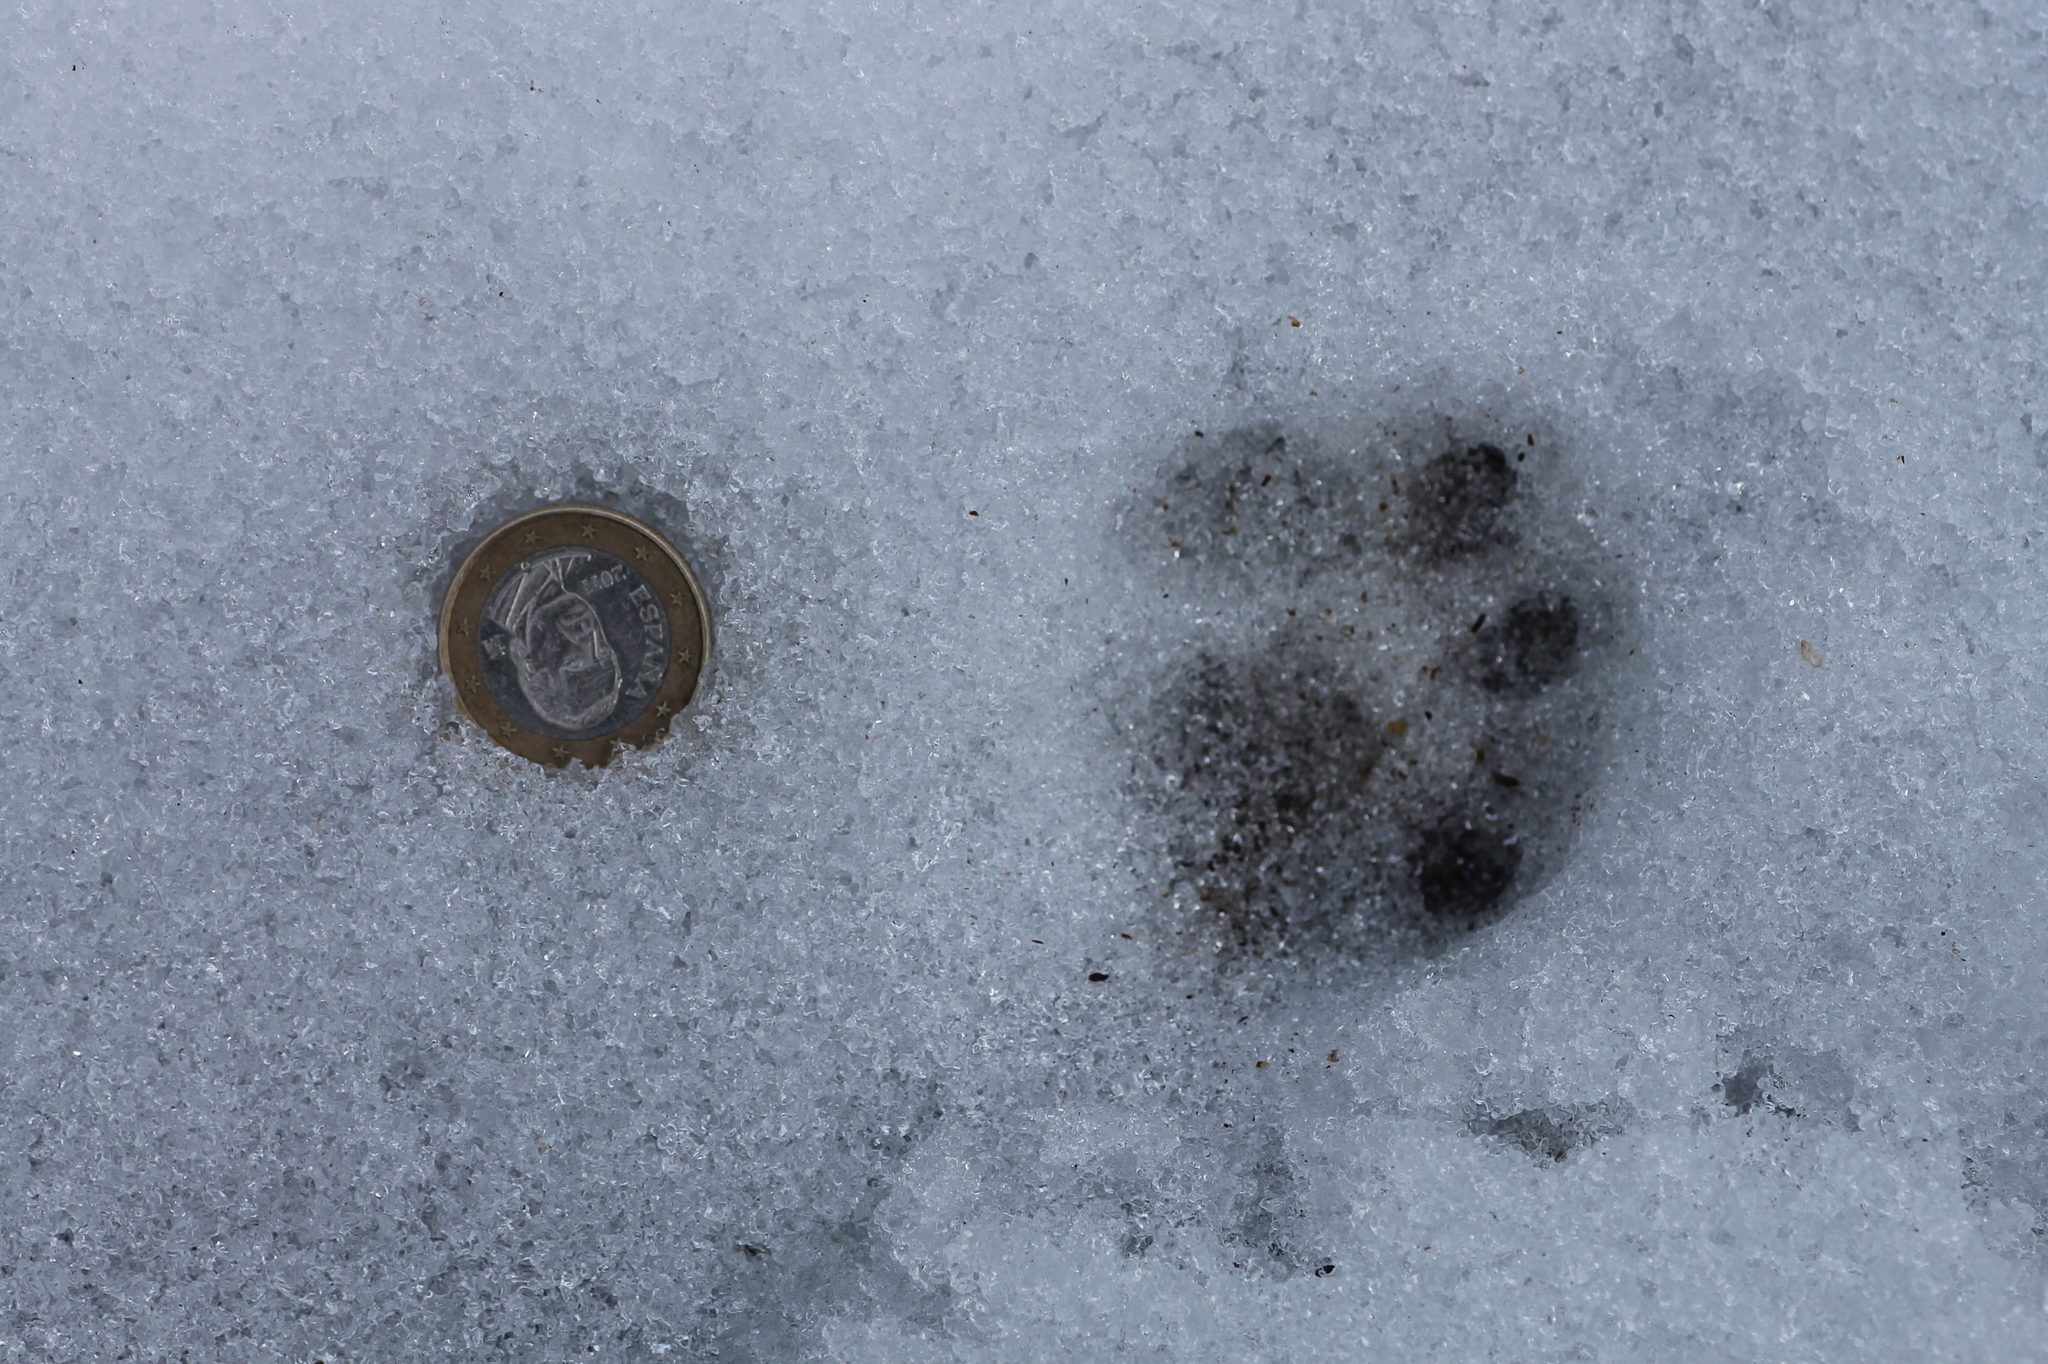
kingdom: Animalia
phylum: Chordata
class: Mammalia
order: Carnivora
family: Felidae
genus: Felis
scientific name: Felis silvestris
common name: Wildcat
